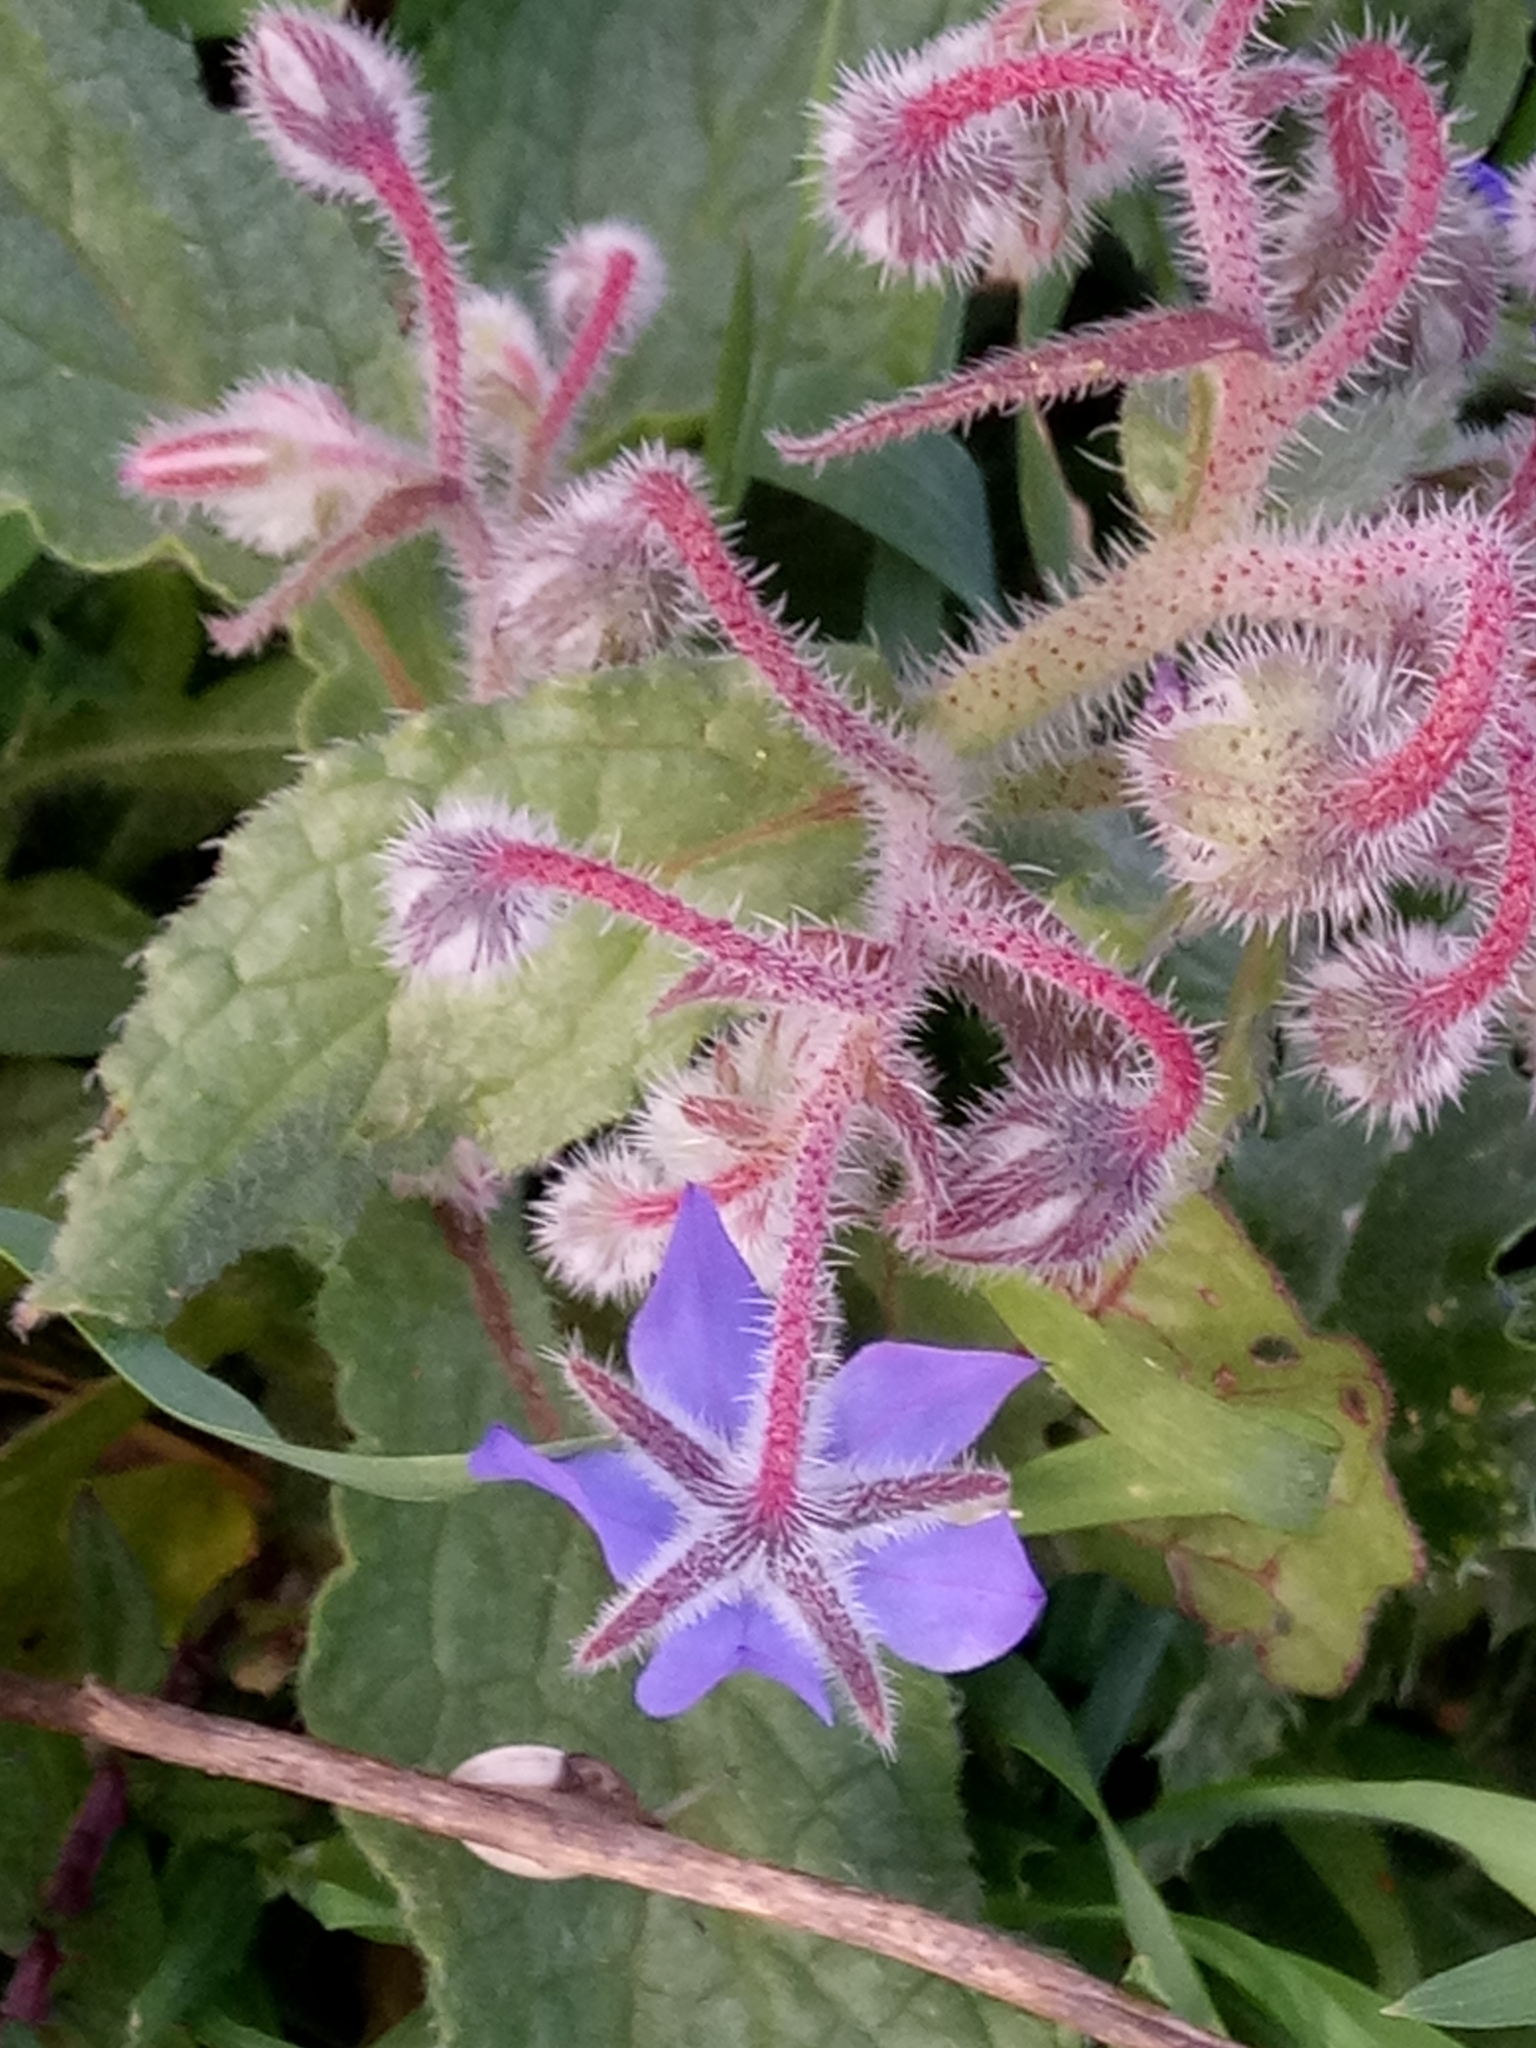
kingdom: Plantae
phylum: Tracheophyta
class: Magnoliopsida
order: Boraginales
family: Boraginaceae
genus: Borago
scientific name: Borago officinalis
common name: Borage
